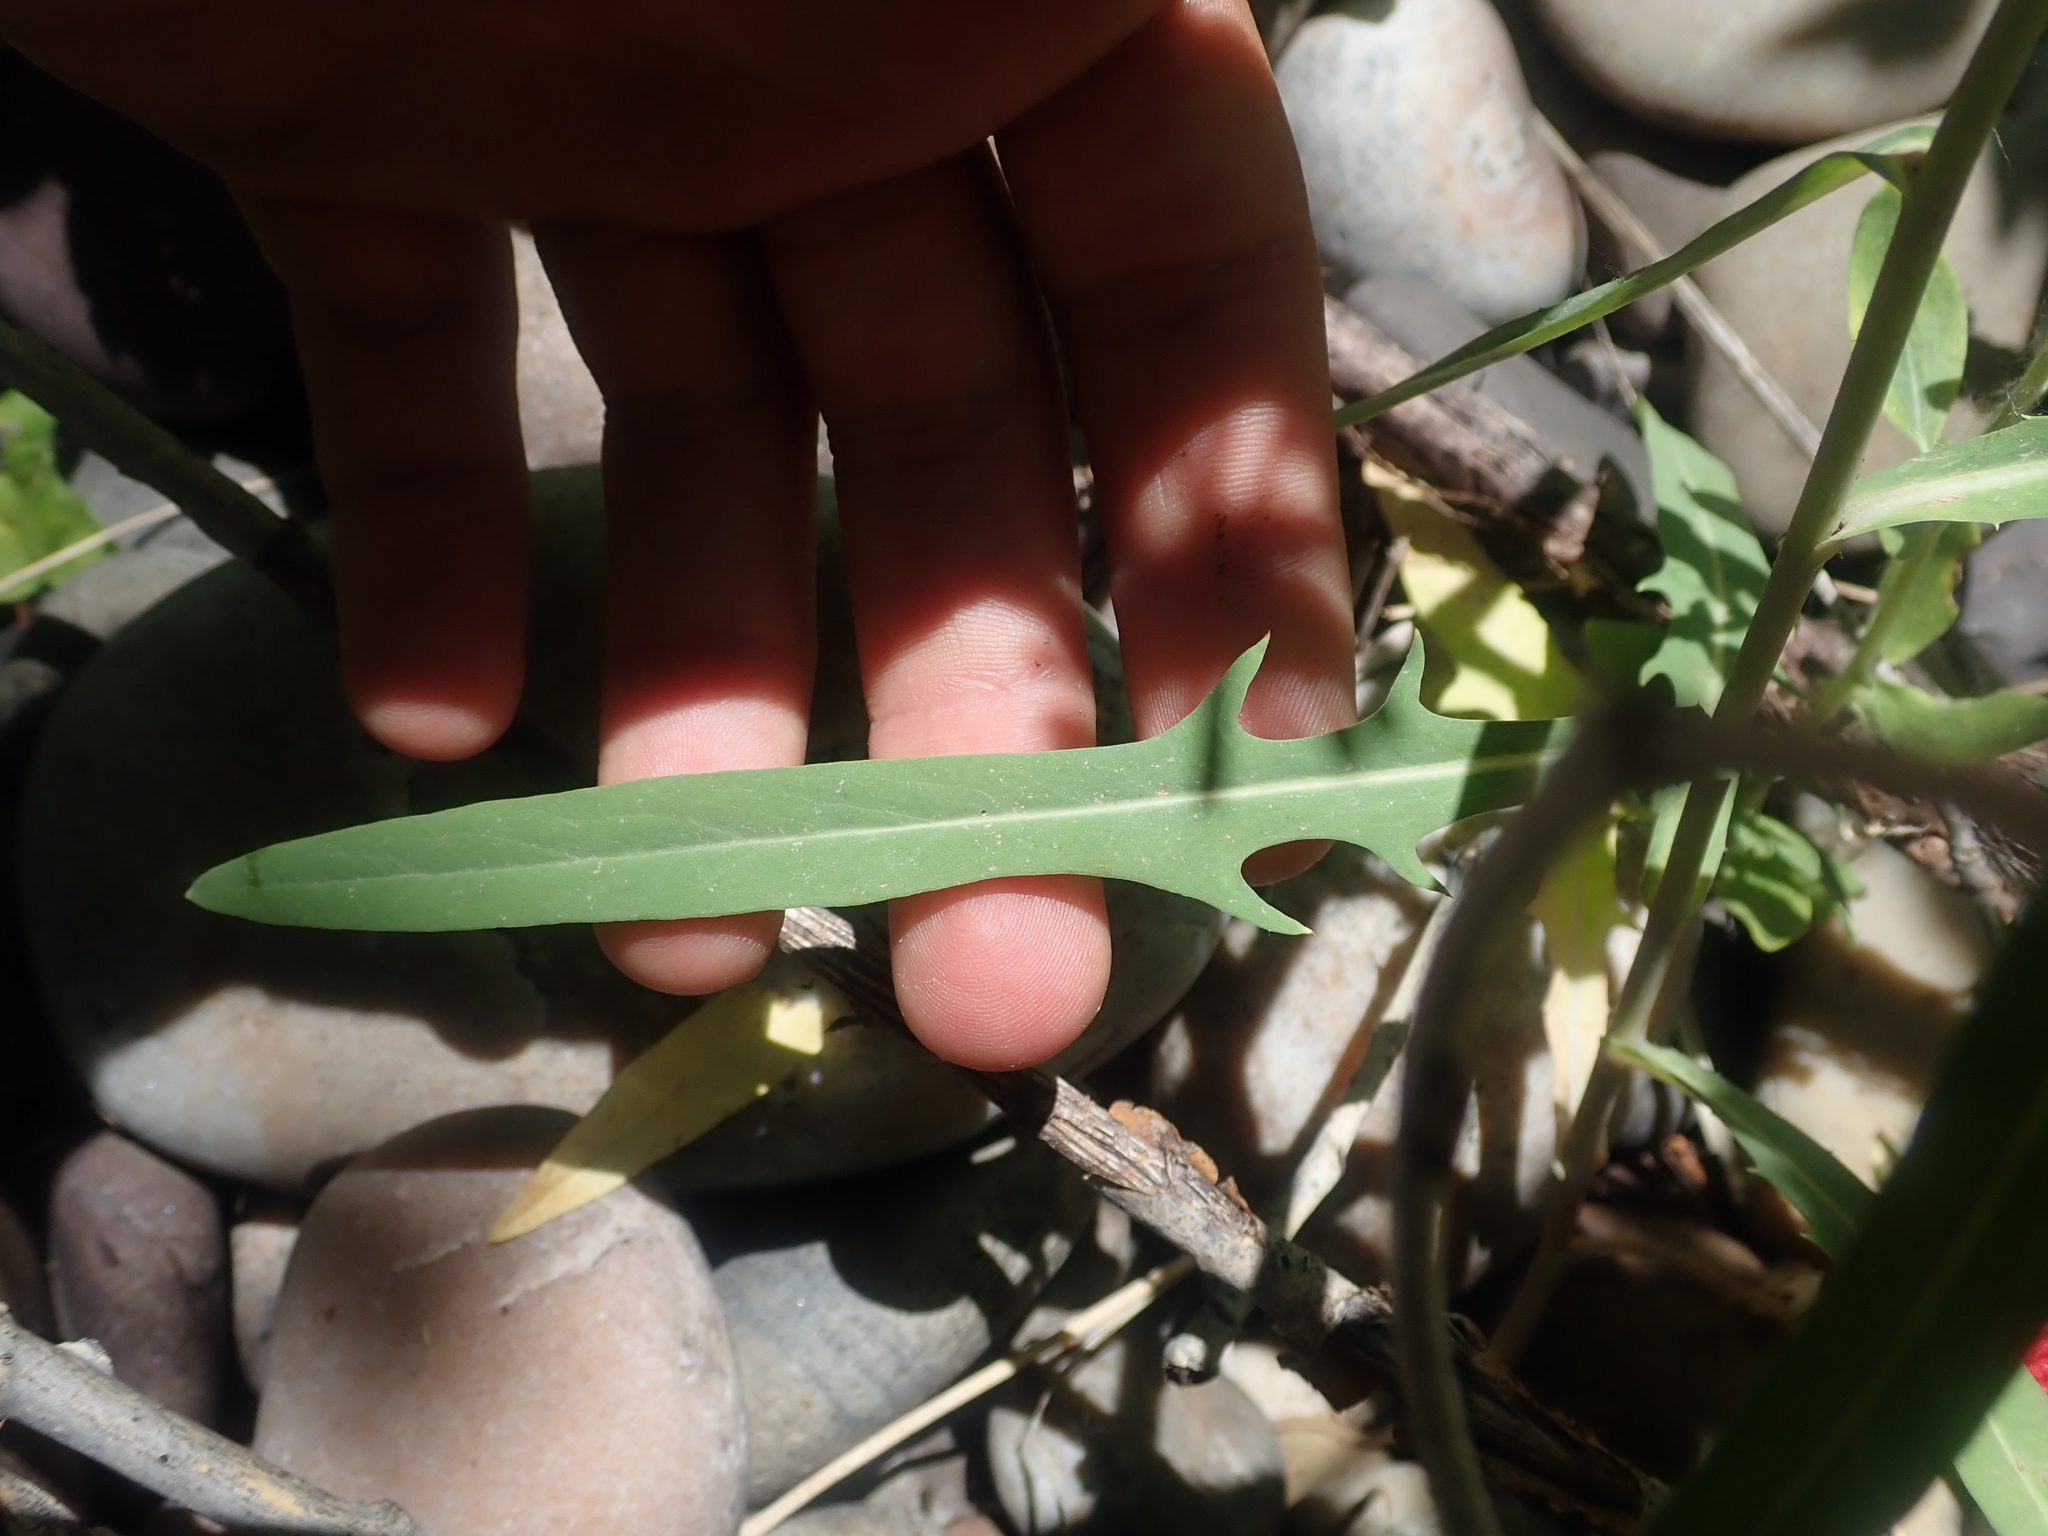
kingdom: Plantae
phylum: Tracheophyta
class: Magnoliopsida
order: Asterales
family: Asteraceae
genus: Lactuca
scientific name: Lactuca tatarica
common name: Blue lettuce
